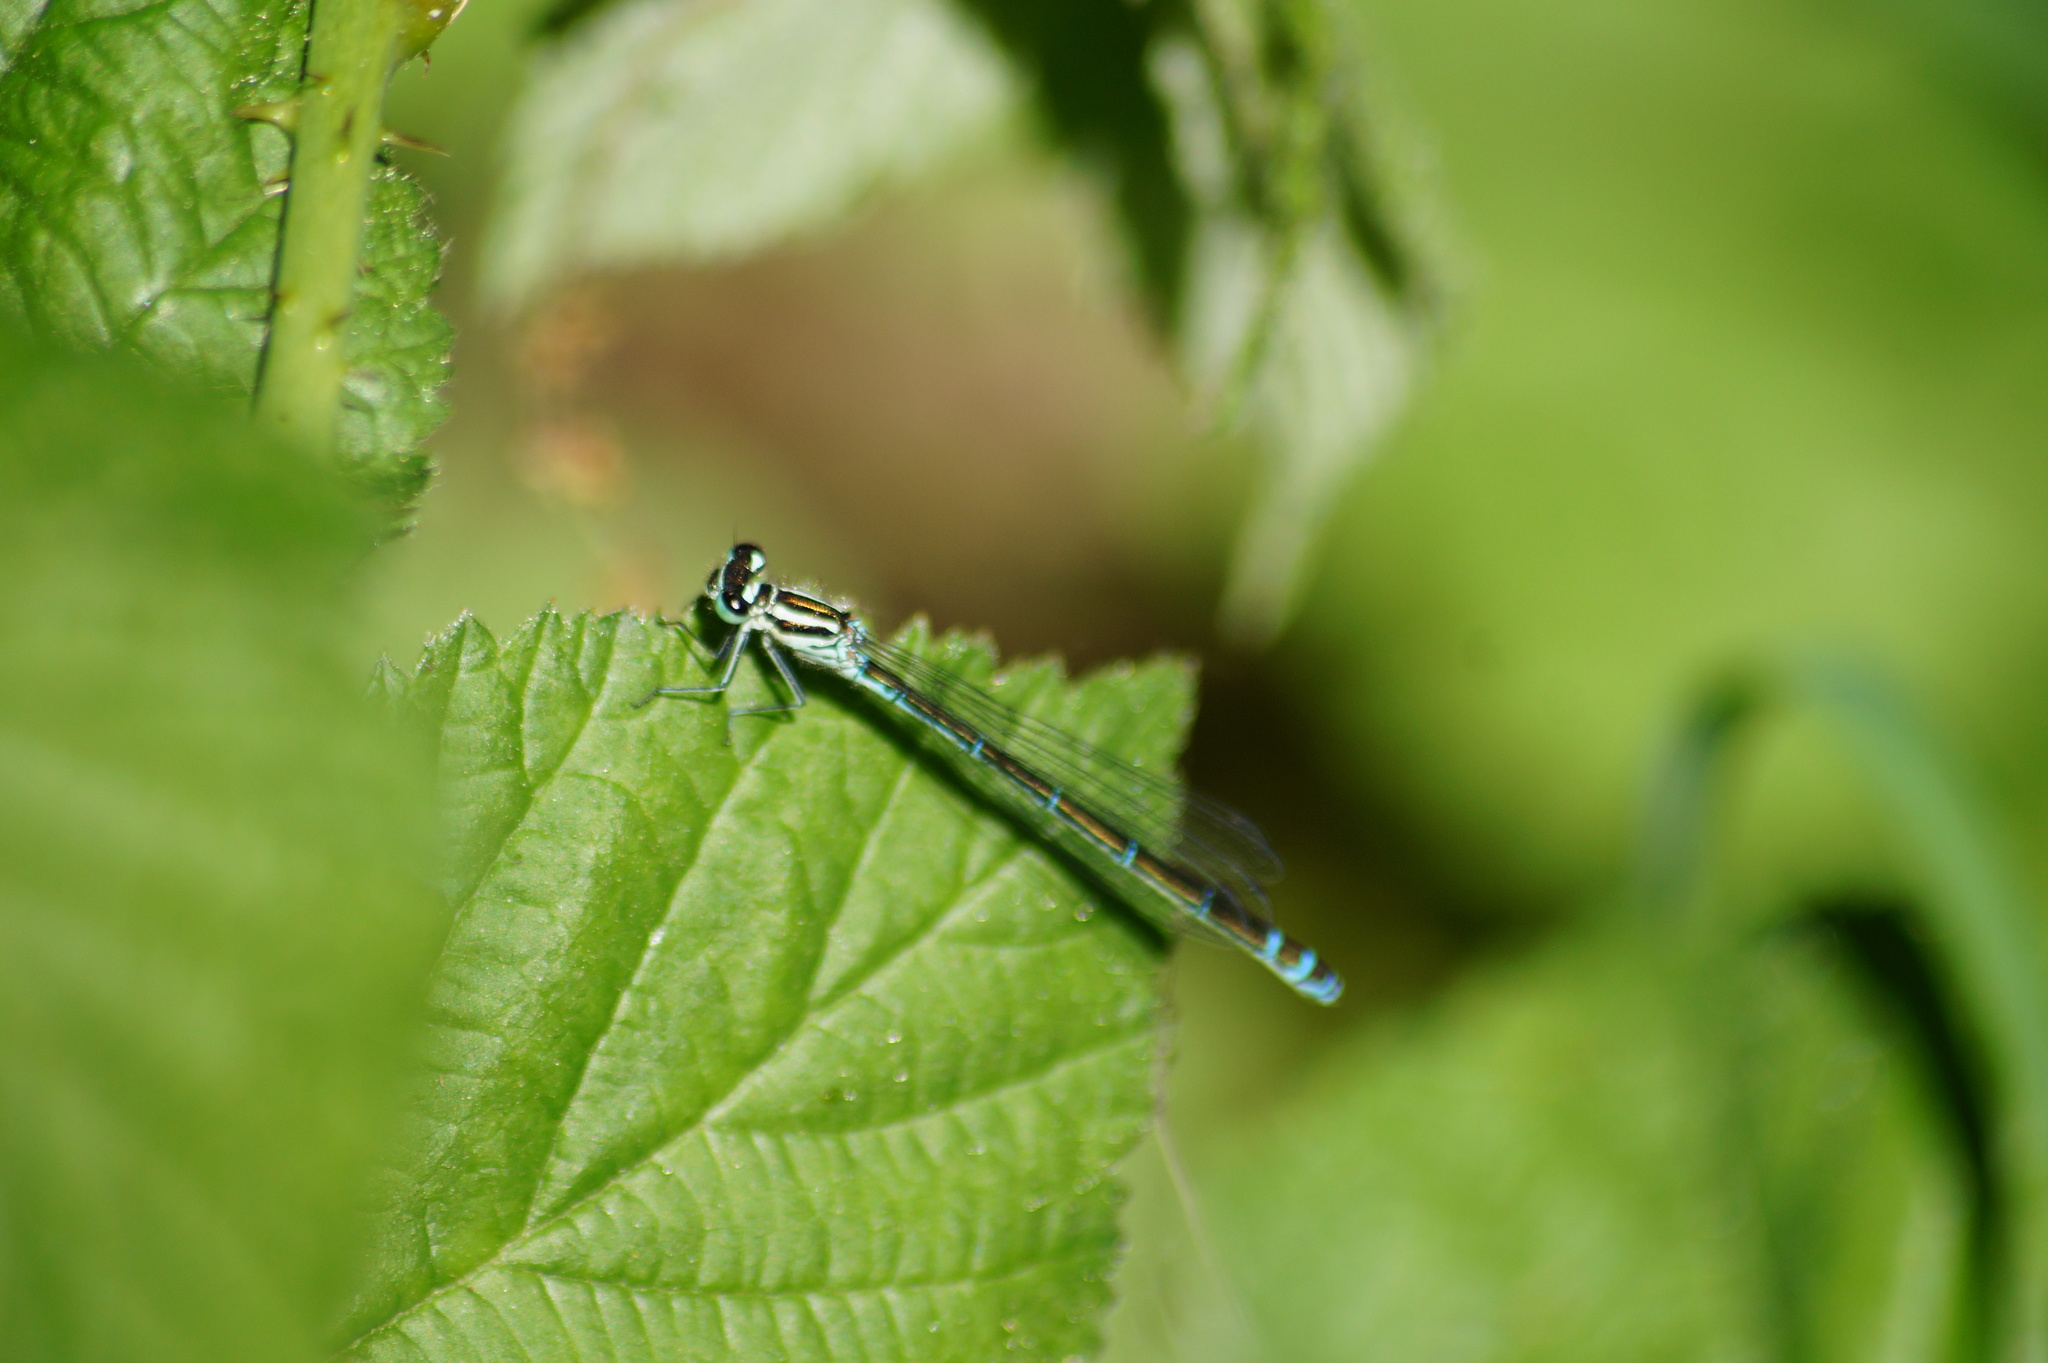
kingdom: Animalia
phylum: Arthropoda
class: Insecta
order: Odonata
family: Coenagrionidae
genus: Coenagrion
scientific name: Coenagrion puella
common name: Azure damselfly
